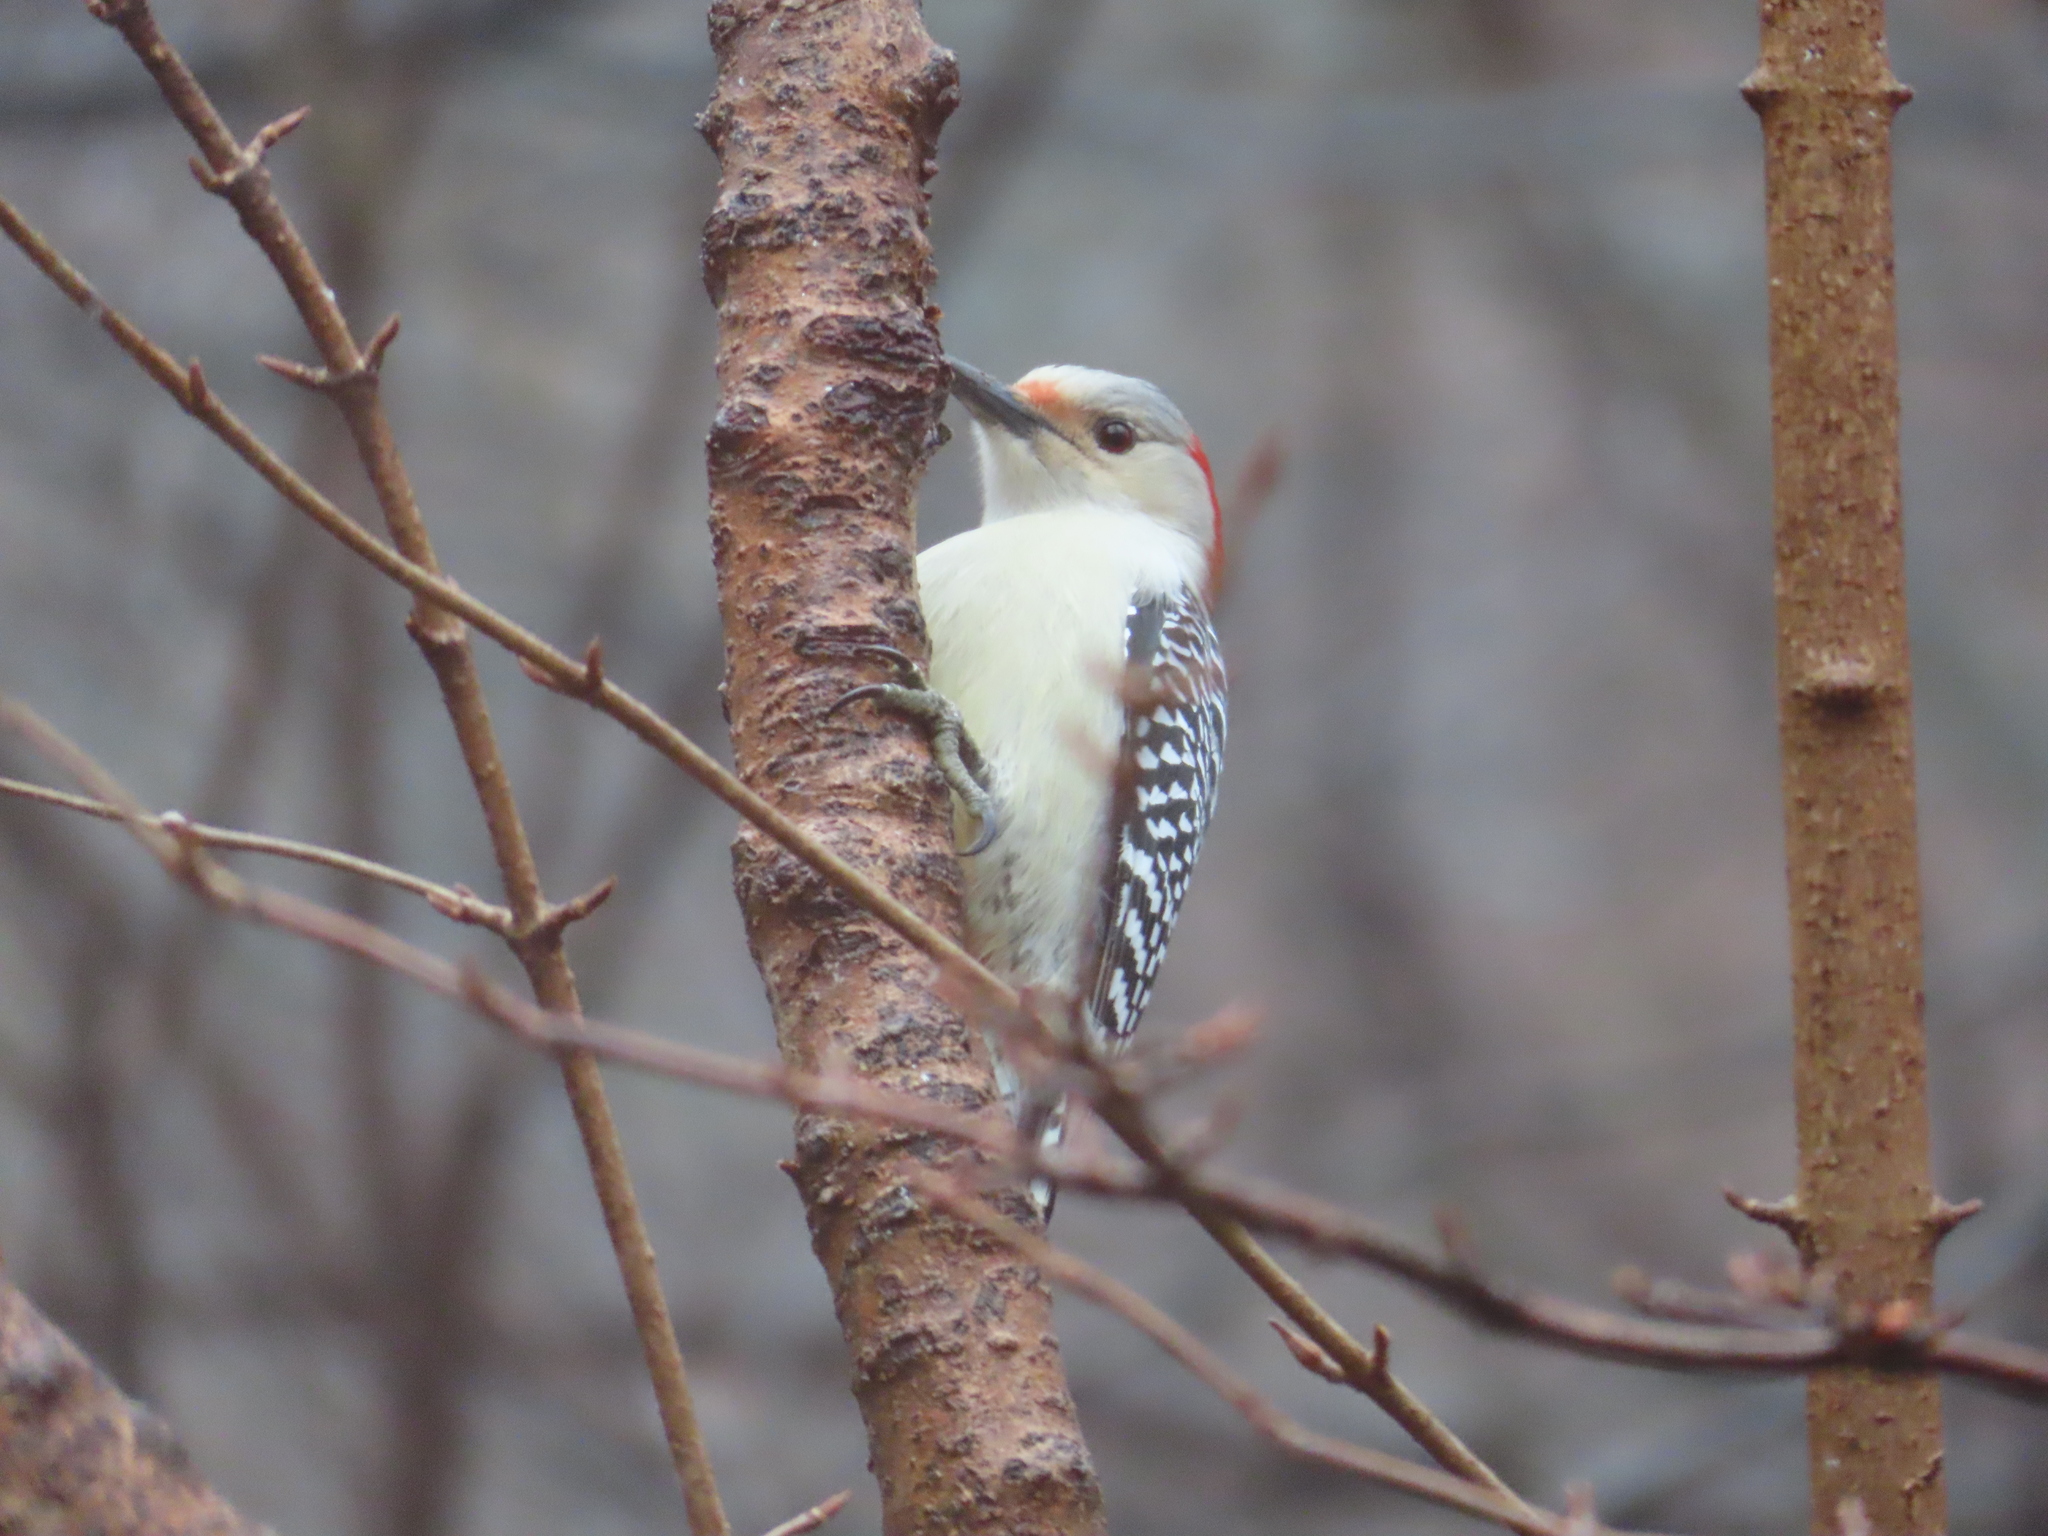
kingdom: Animalia
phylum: Chordata
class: Aves
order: Piciformes
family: Picidae
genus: Melanerpes
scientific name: Melanerpes carolinus
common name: Red-bellied woodpecker
